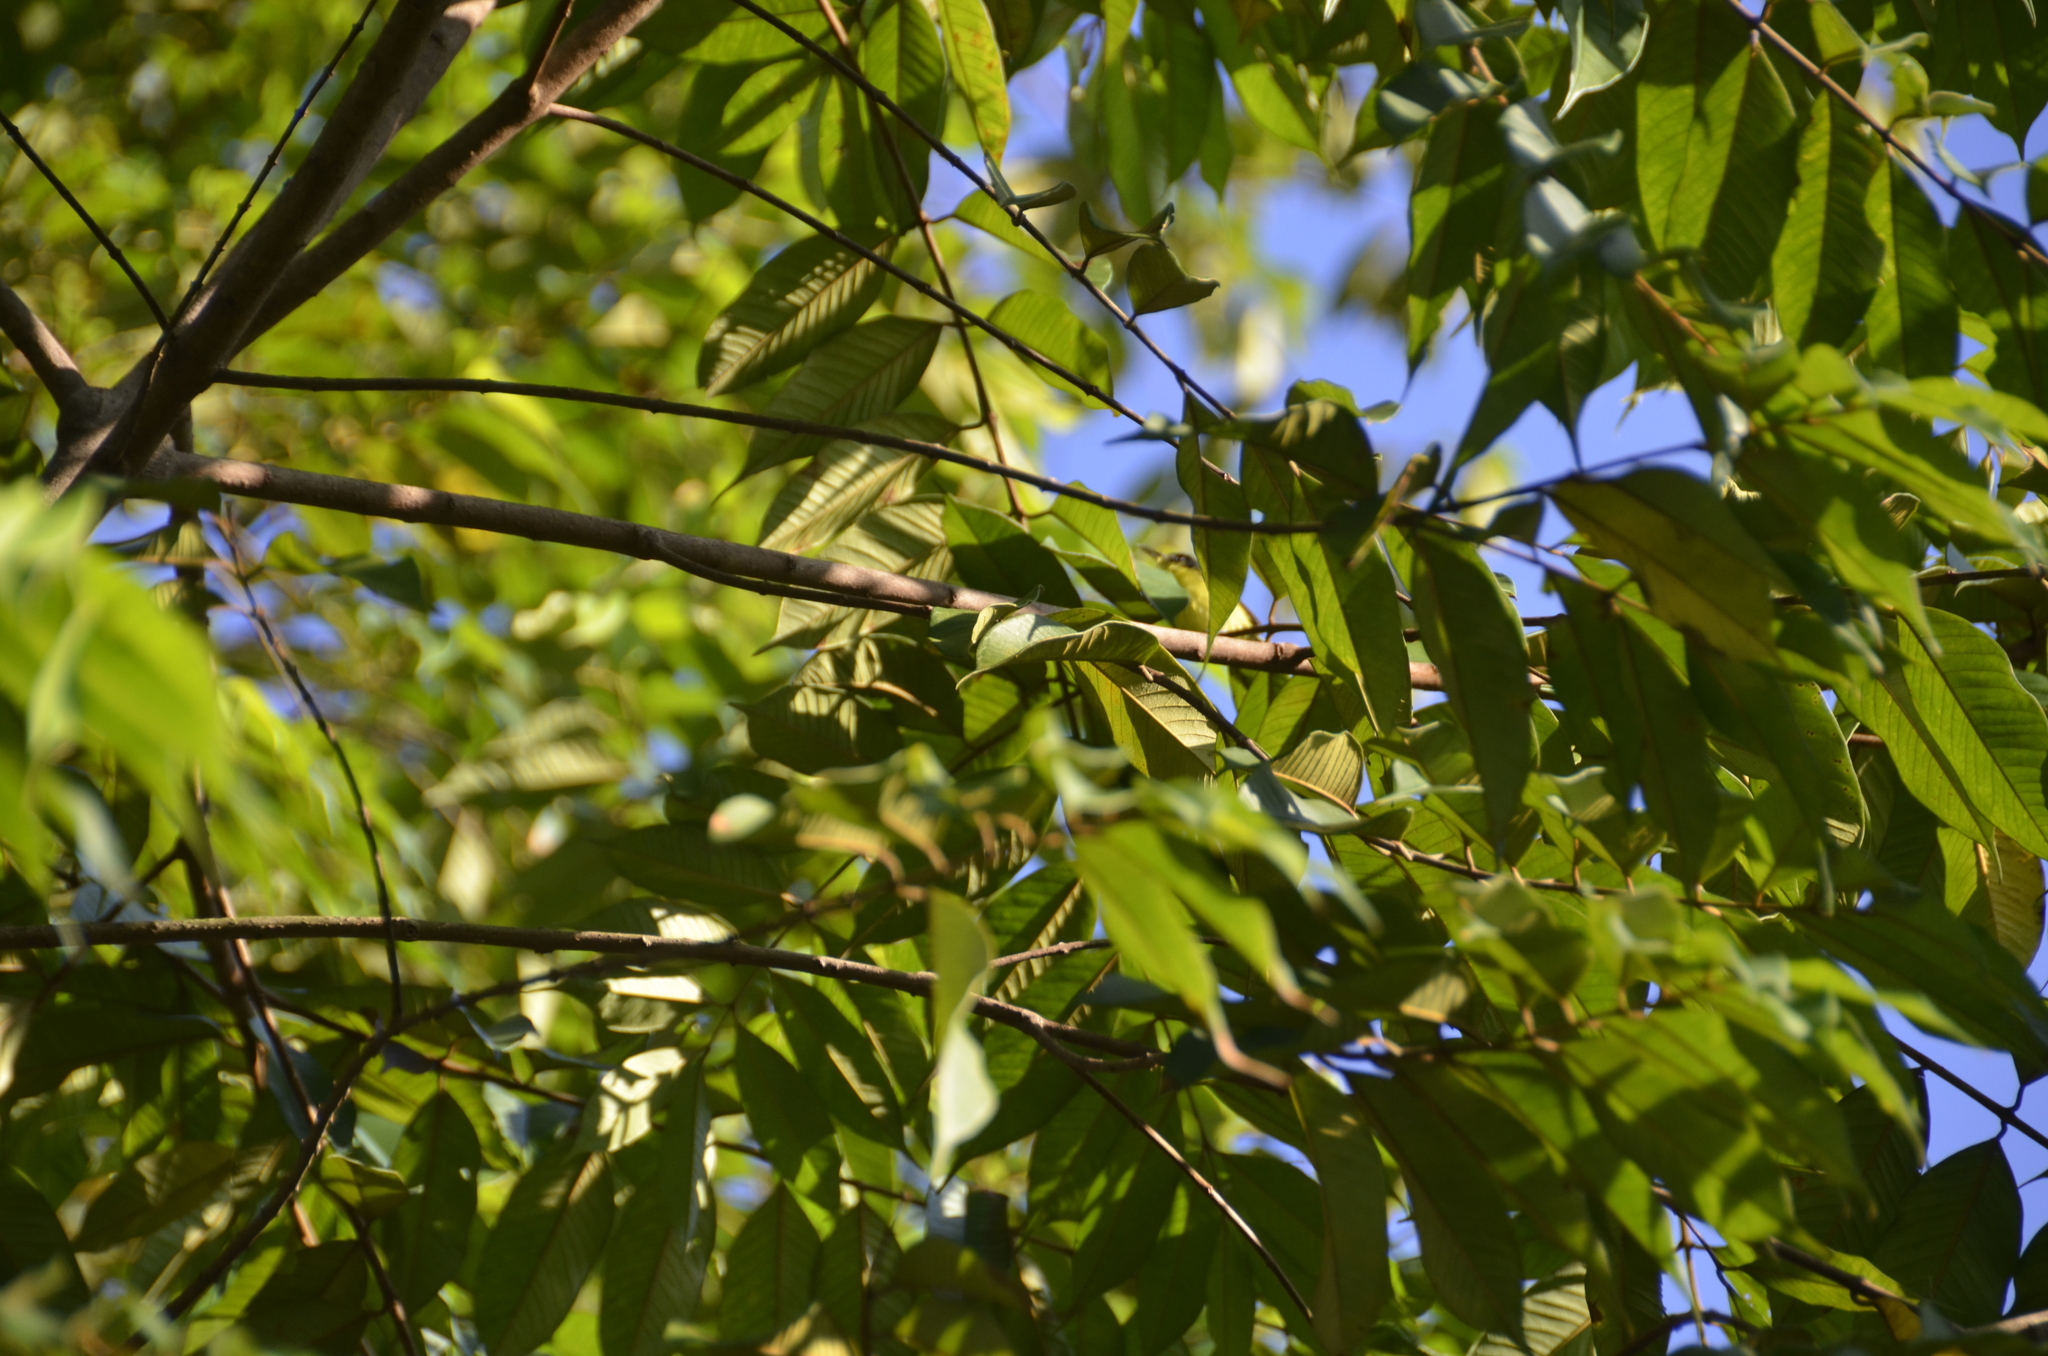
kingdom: Animalia
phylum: Chordata
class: Aves
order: Passeriformes
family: Tyrannidae
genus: Todirostrum
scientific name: Todirostrum cinereum
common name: Common tody-flycatcher
